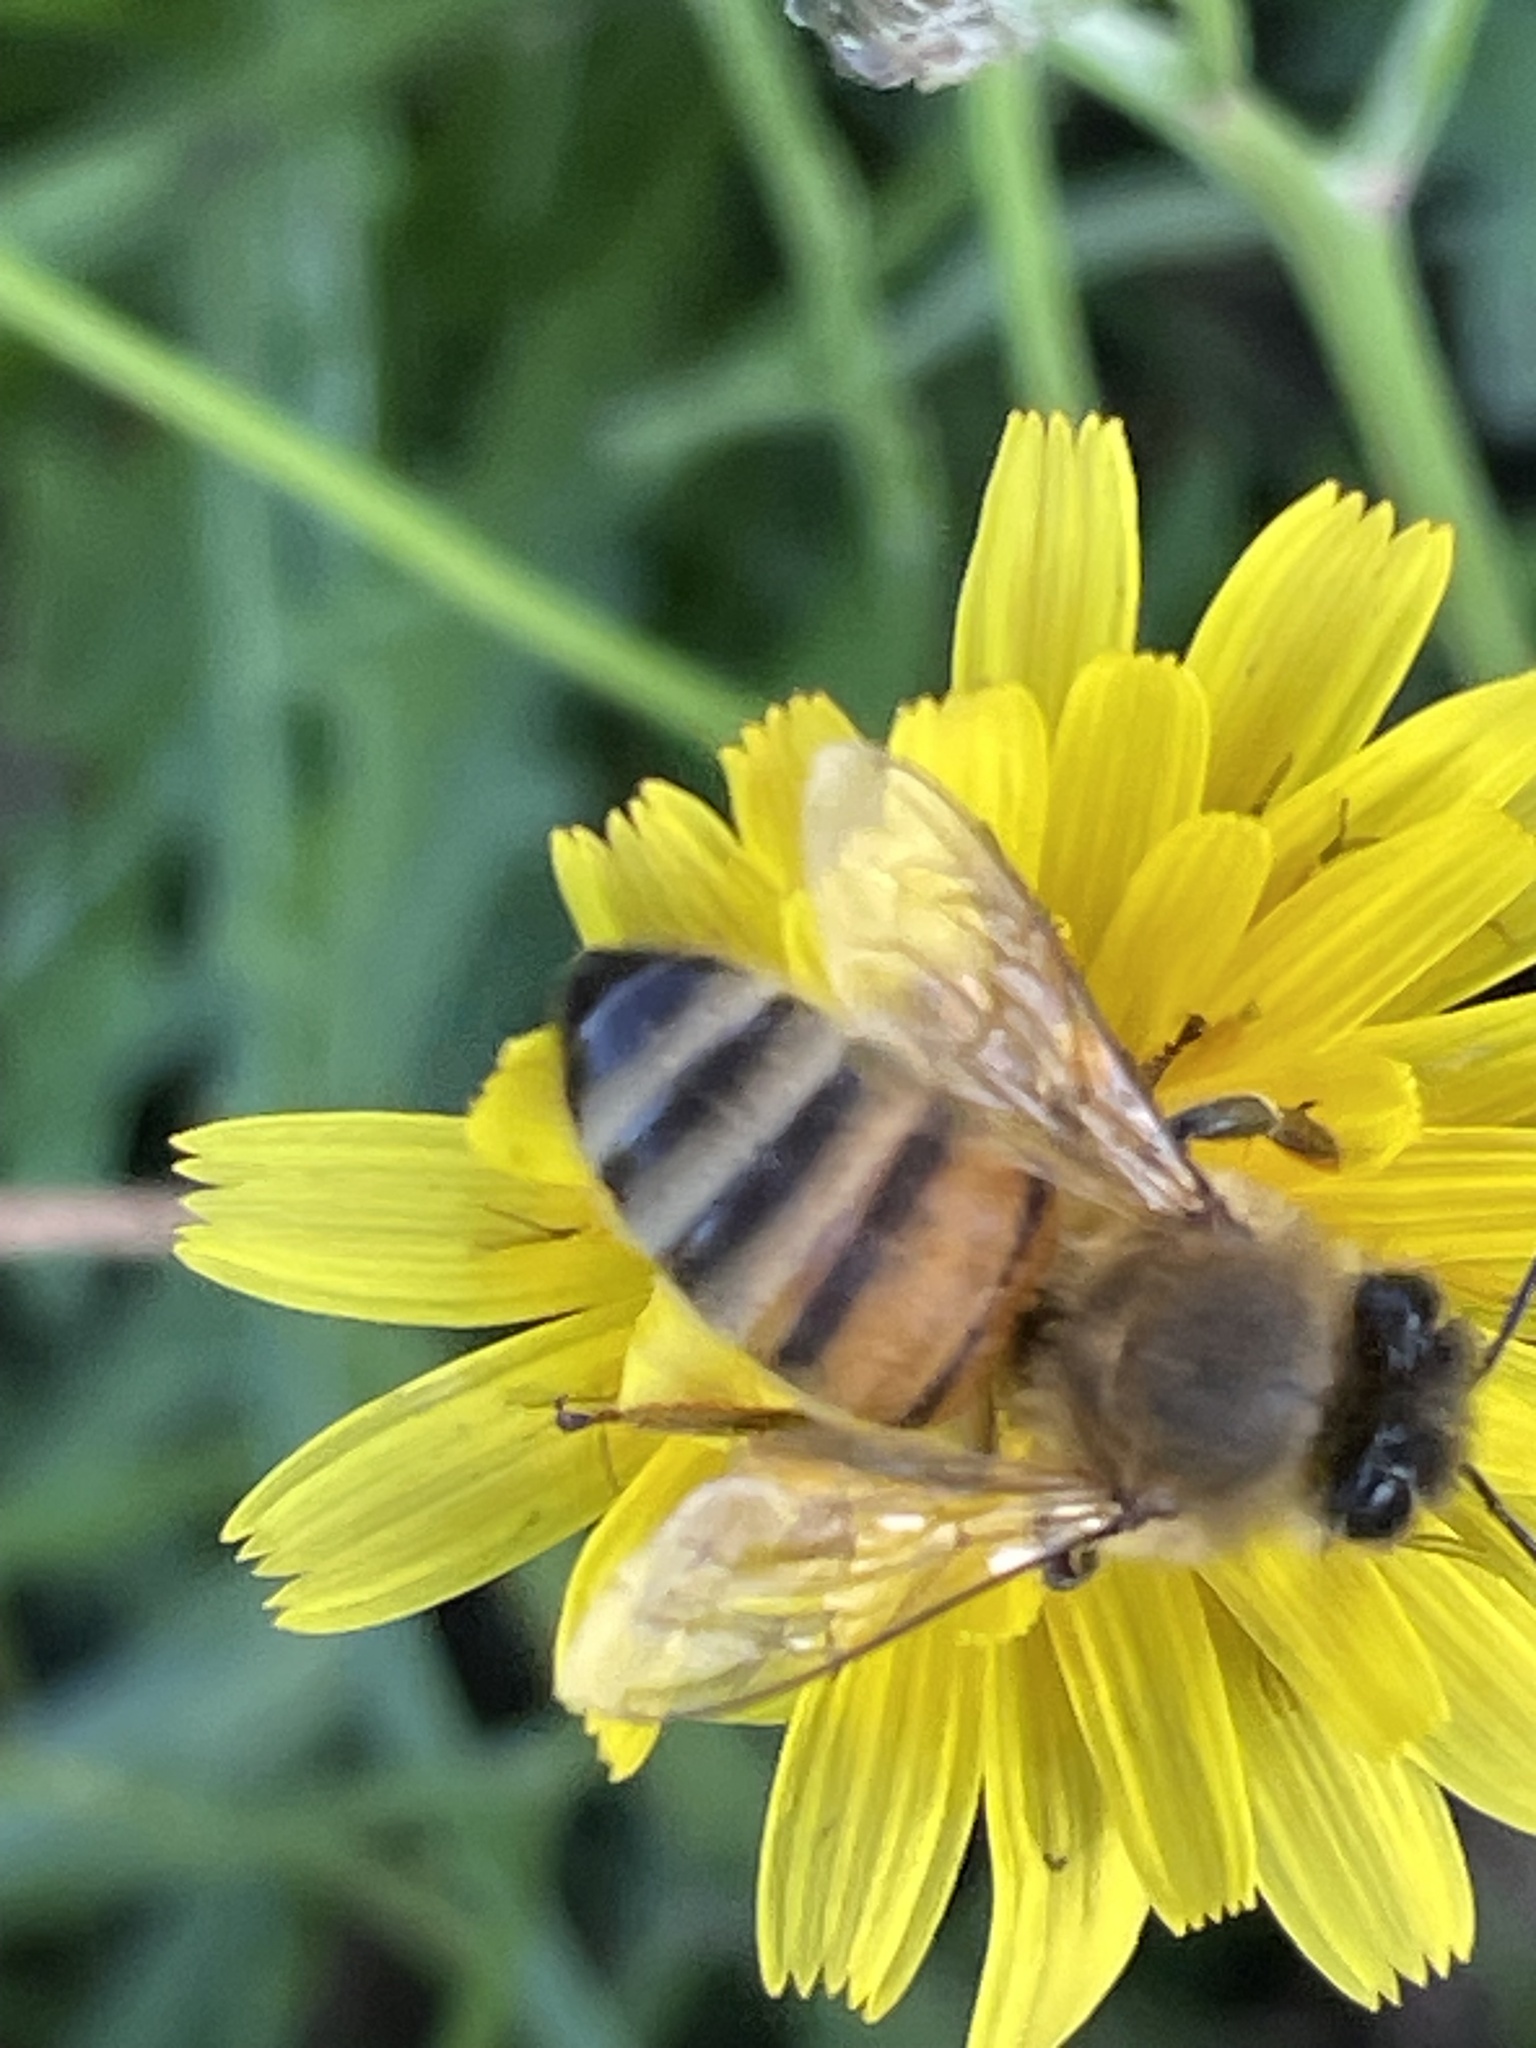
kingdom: Animalia
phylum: Arthropoda
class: Insecta
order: Hymenoptera
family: Apidae
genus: Apis
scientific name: Apis mellifera
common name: Honey bee
